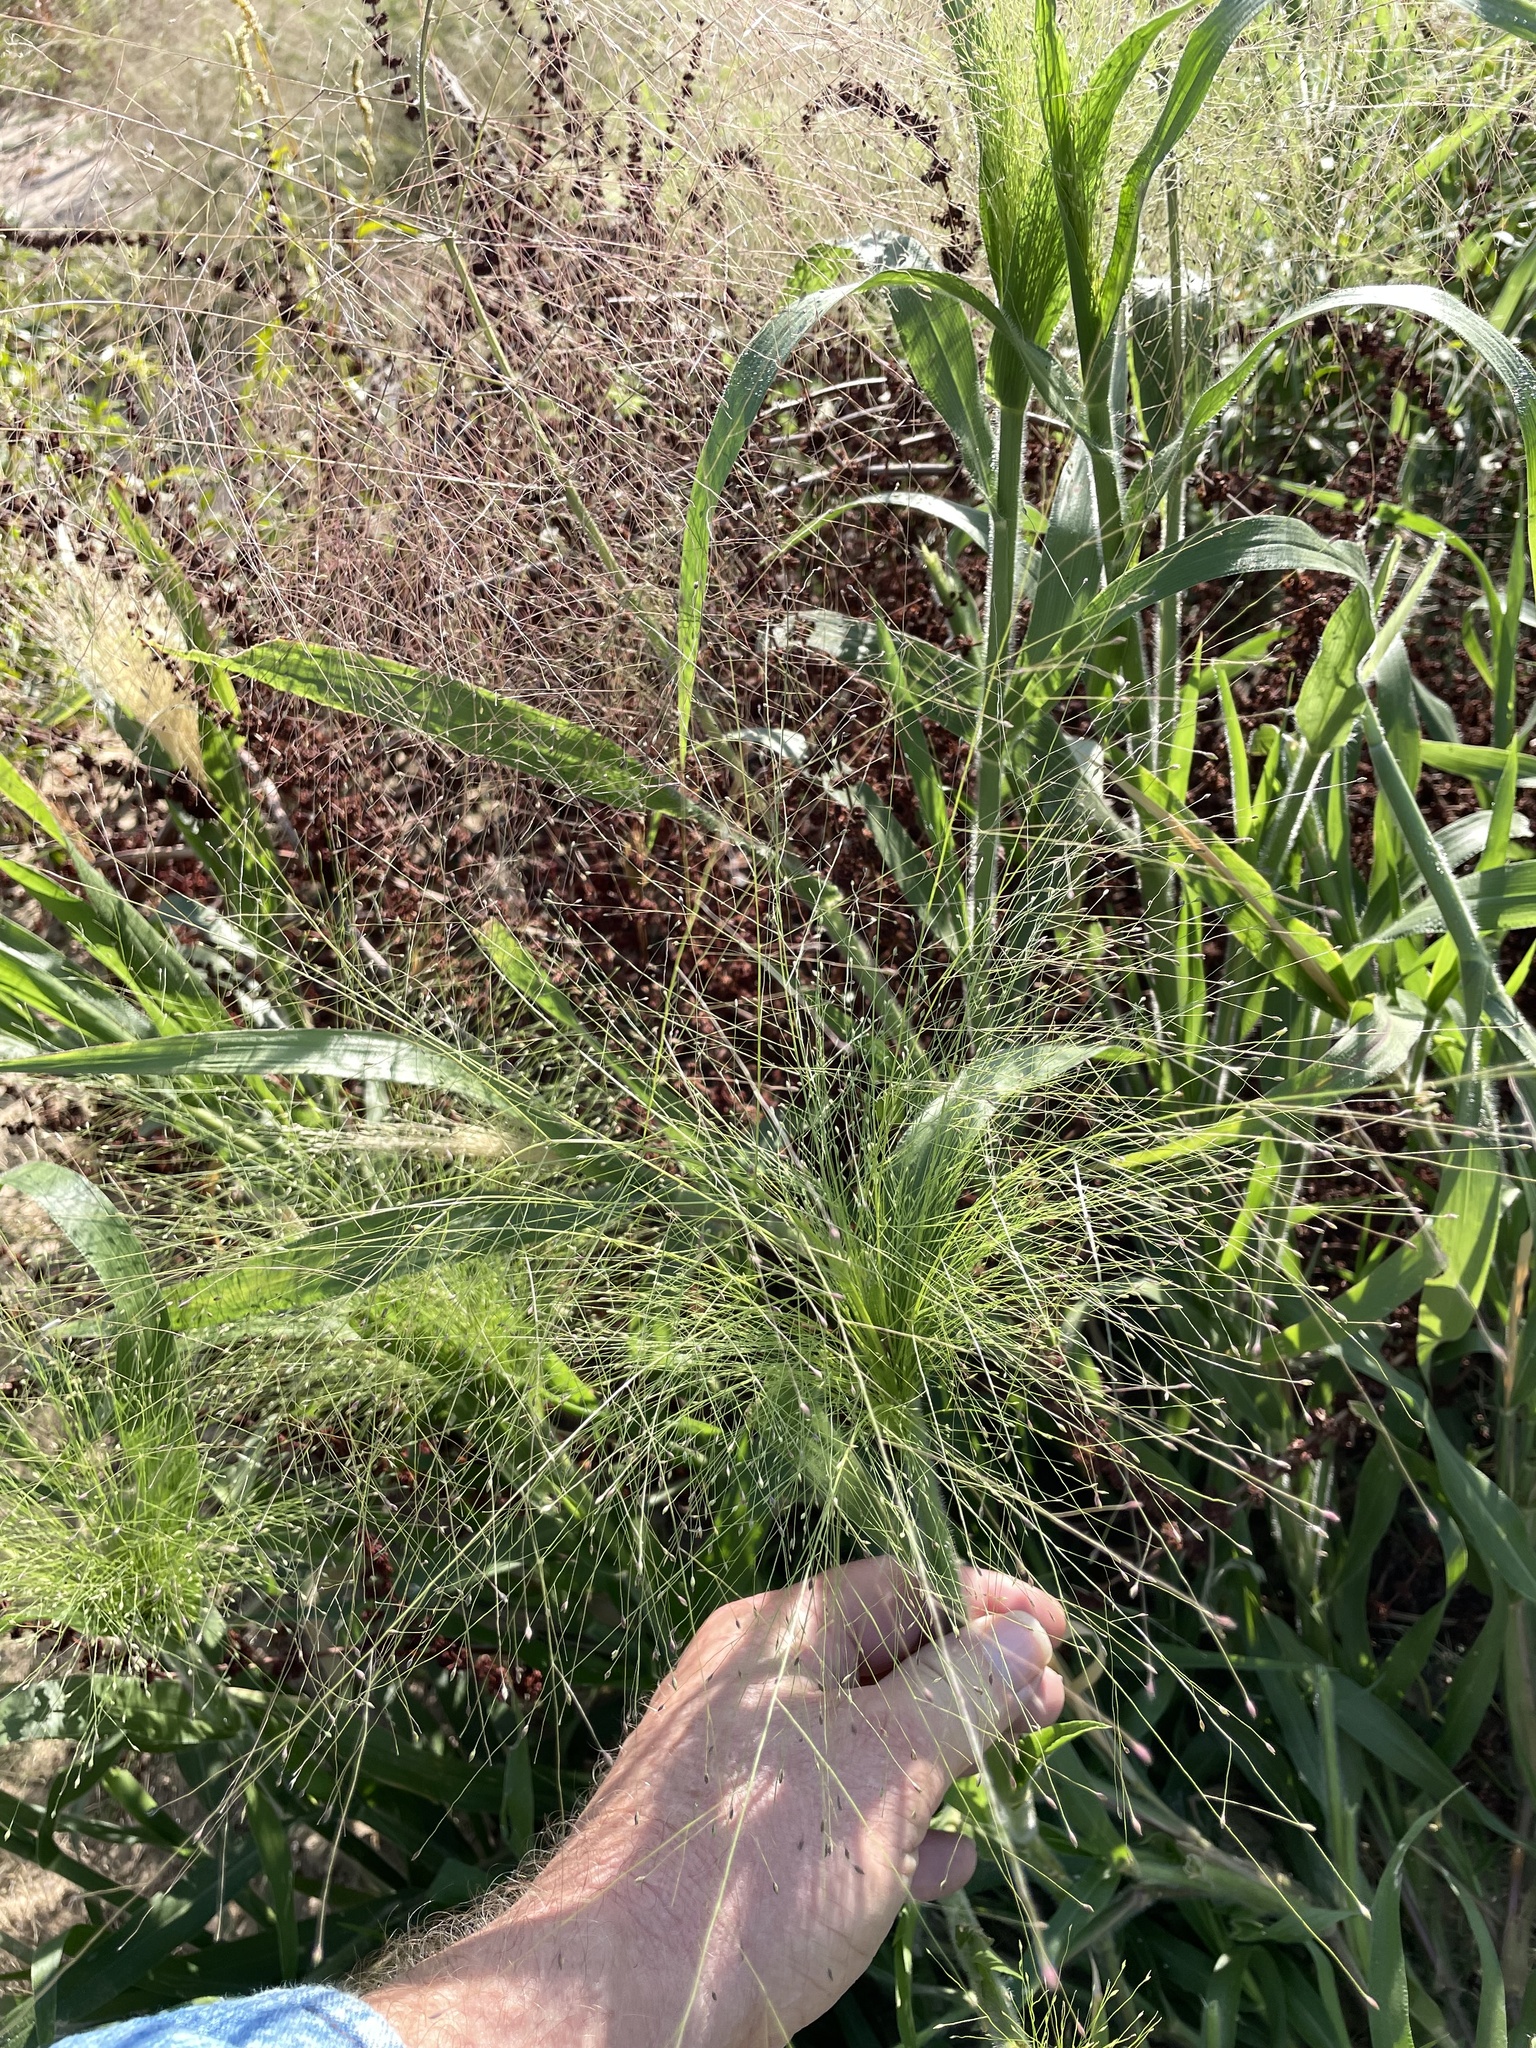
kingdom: Plantae
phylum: Tracheophyta
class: Liliopsida
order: Poales
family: Poaceae
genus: Panicum
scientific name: Panicum capillare
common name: Witch-grass
